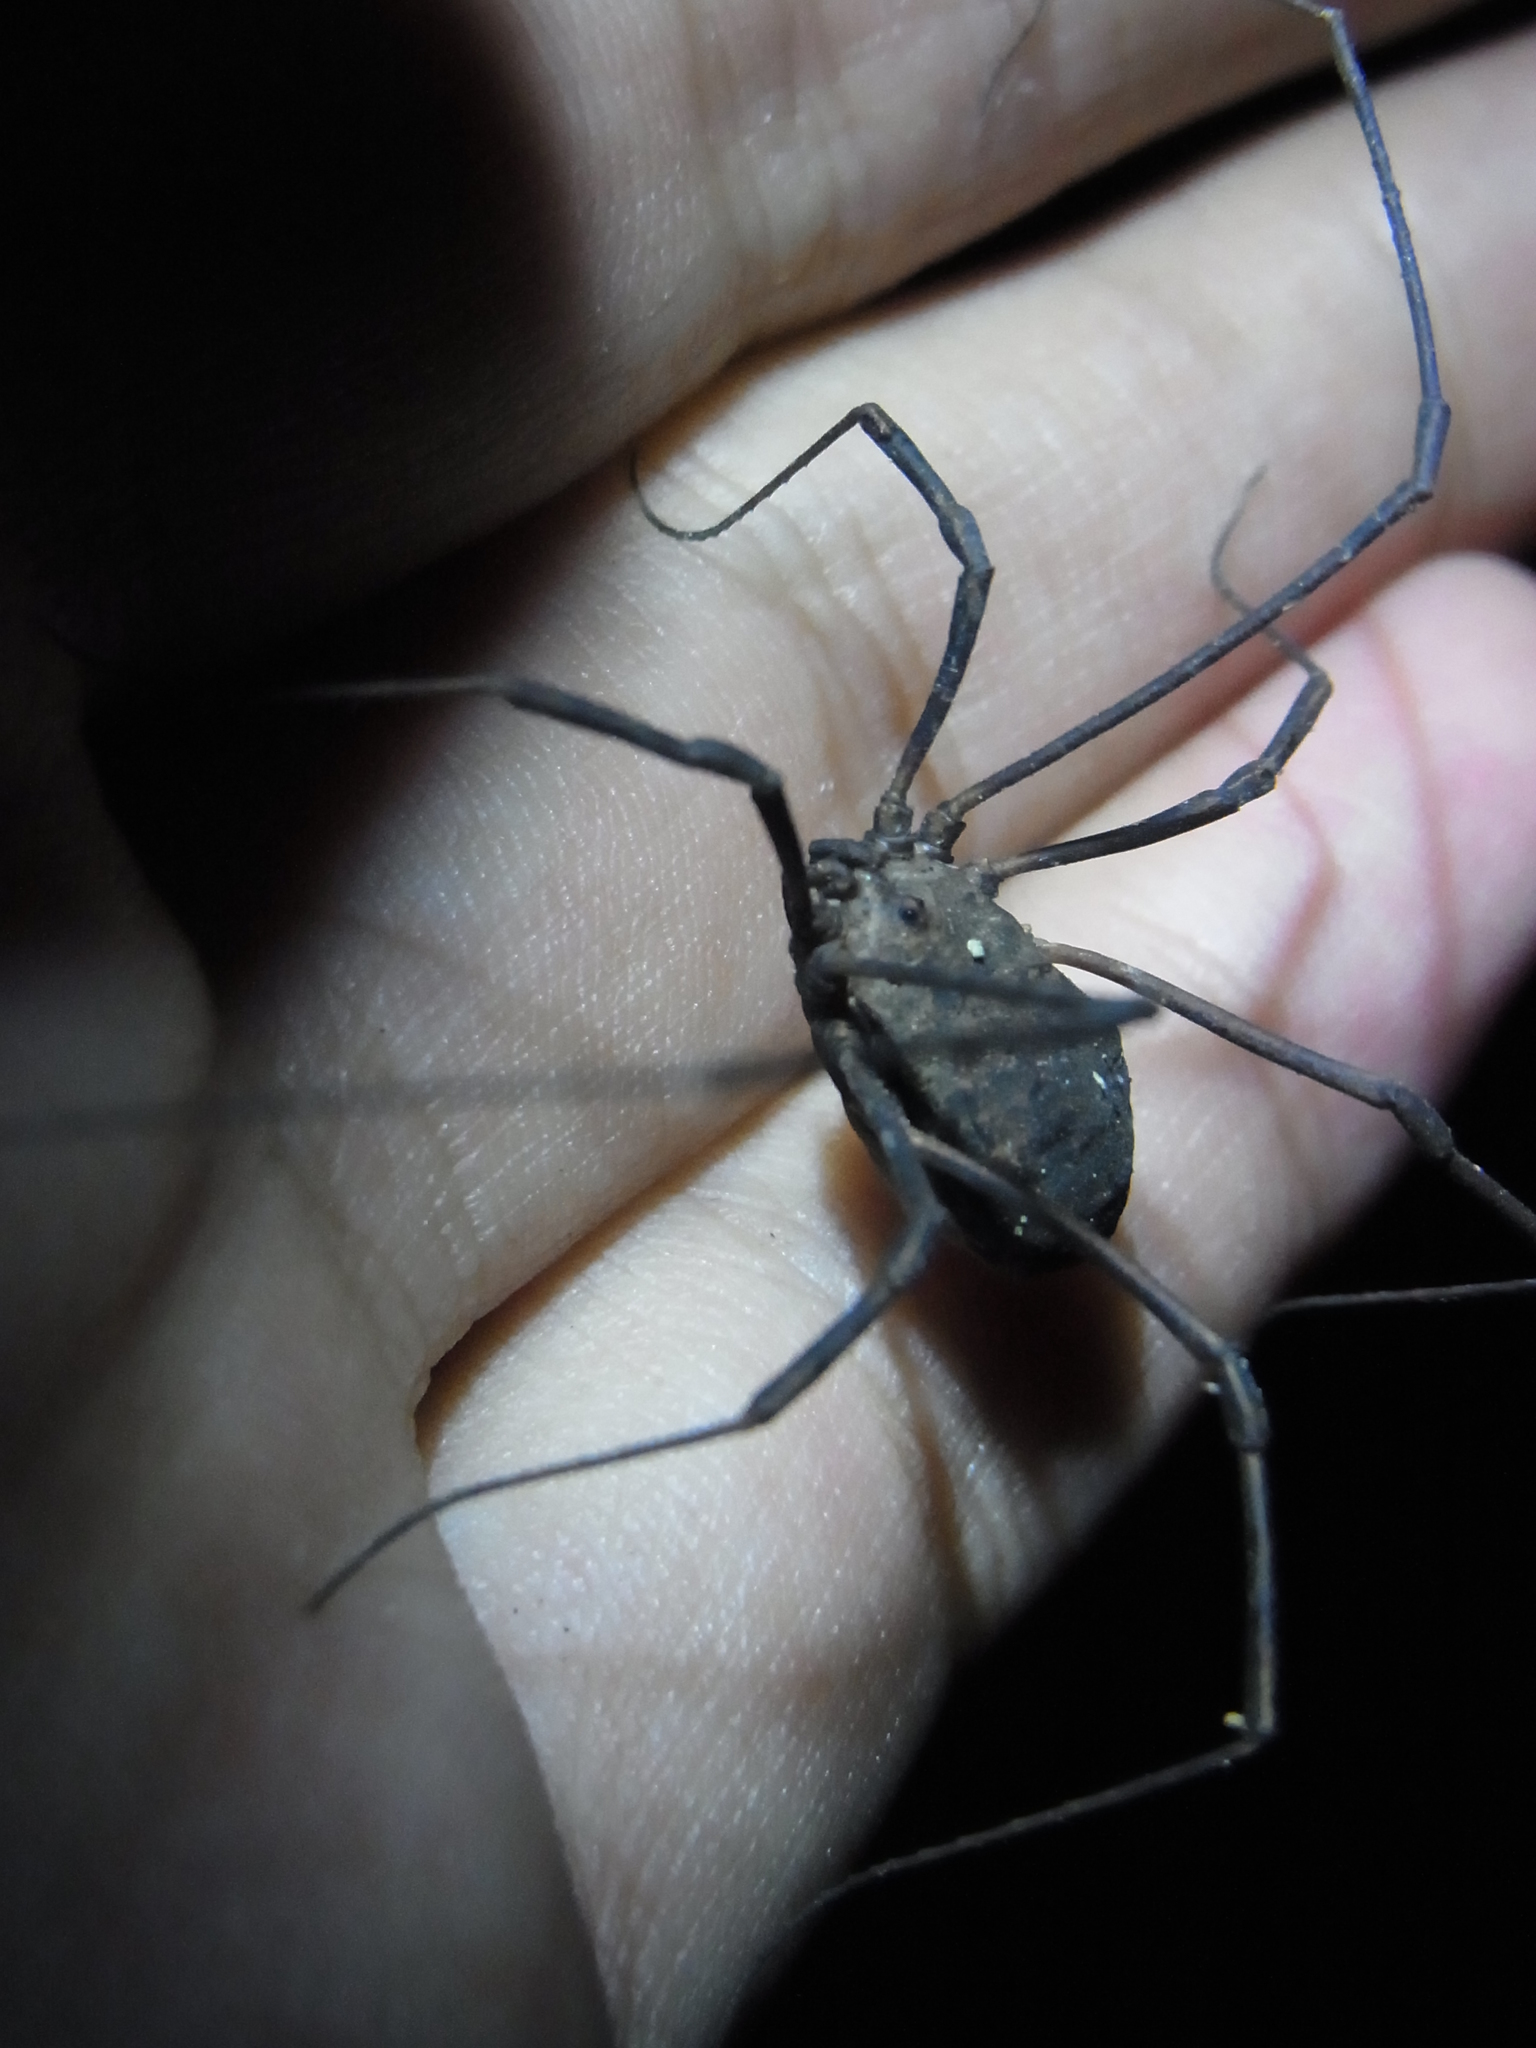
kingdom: Animalia
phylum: Arthropoda
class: Arachnida
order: Opiliones
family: Sclerosomatidae
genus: Leiobunum
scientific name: Leiobunum japanense
